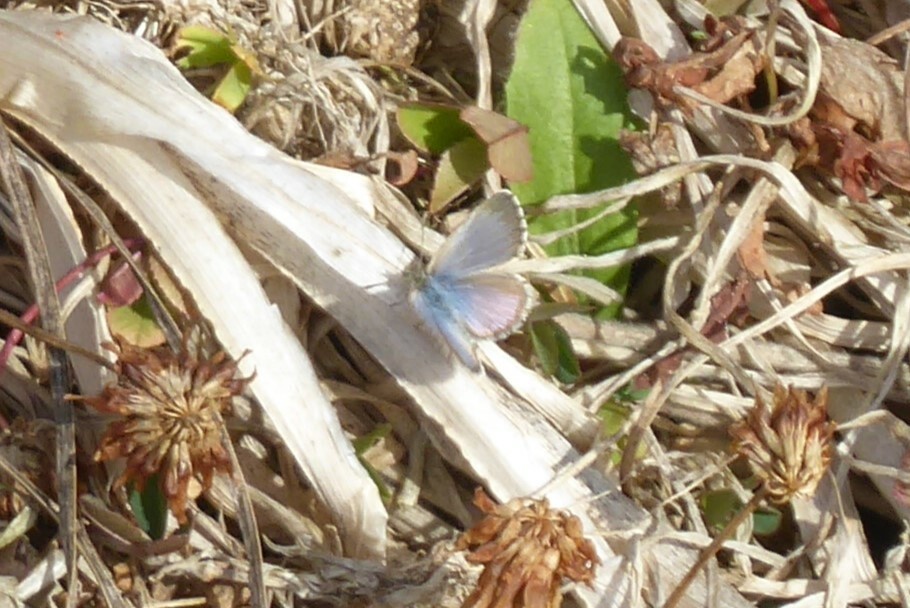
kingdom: Animalia
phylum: Arthropoda
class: Insecta
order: Lepidoptera
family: Lycaenidae
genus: Zizina
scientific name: Zizina oxleyi
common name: Southern blue
